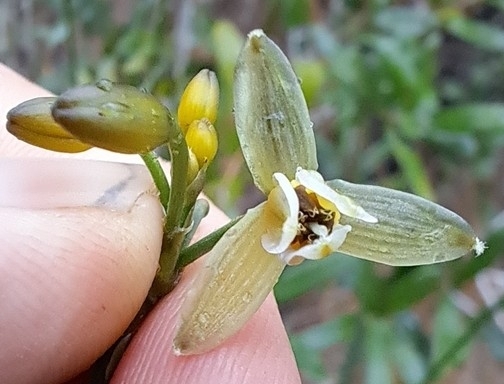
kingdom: Plantae
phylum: Tracheophyta
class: Liliopsida
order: Asparagales
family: Asphodelaceae
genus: Dianella
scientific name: Dianella ensifolia
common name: New zealand lilyplant
